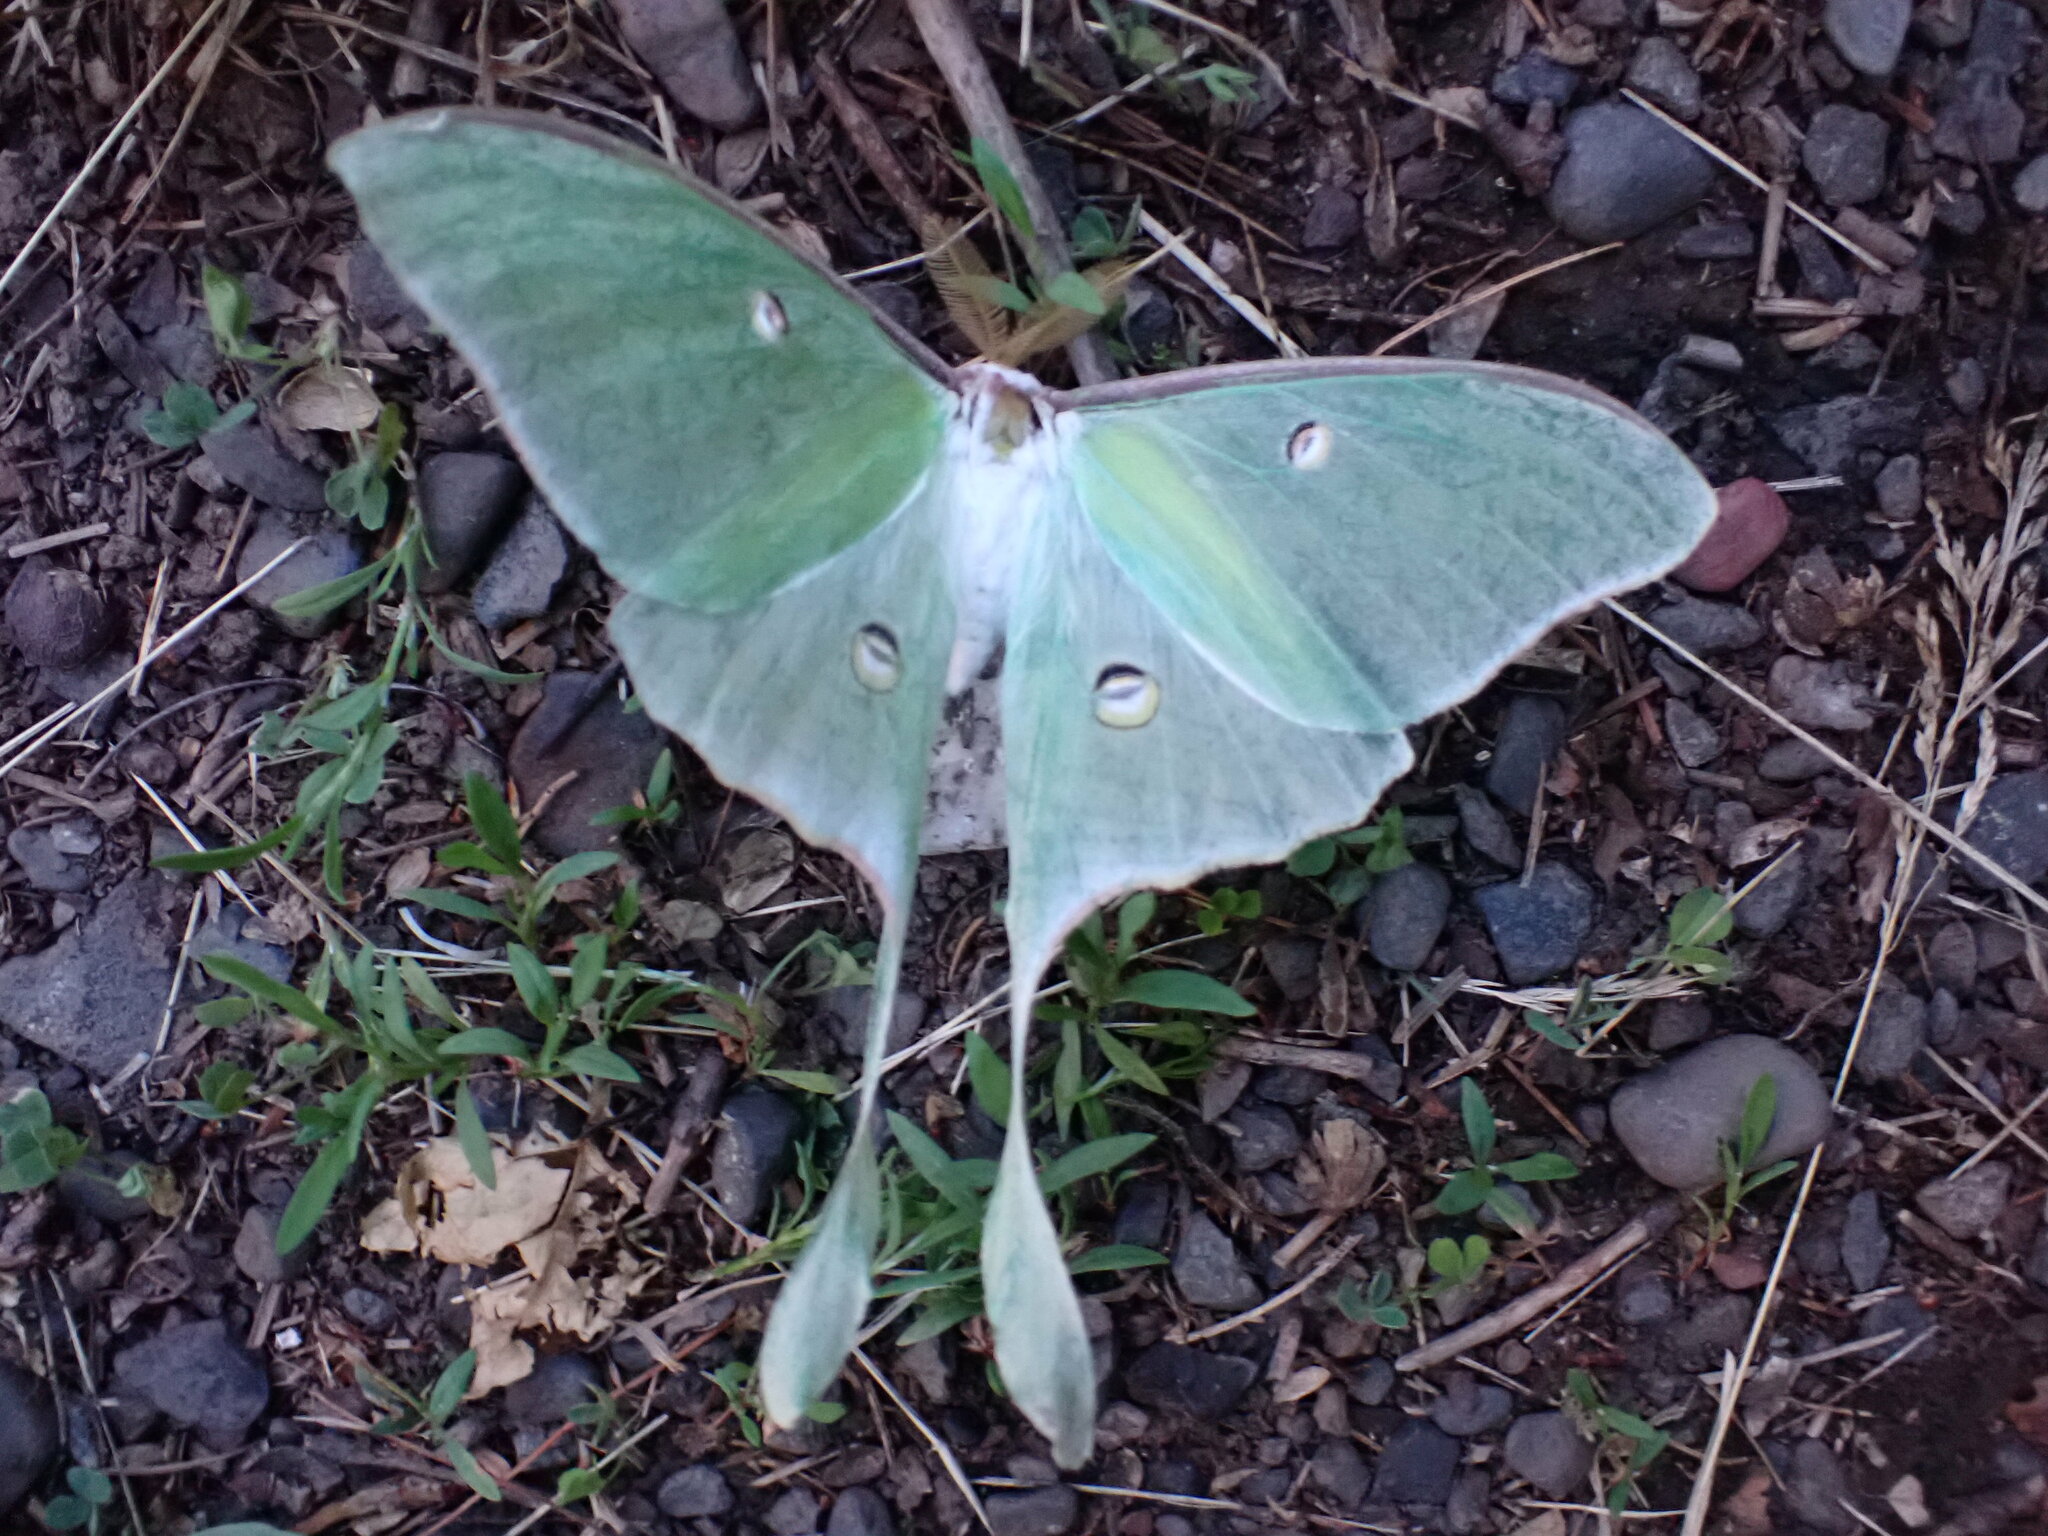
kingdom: Animalia
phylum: Arthropoda
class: Insecta
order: Lepidoptera
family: Saturniidae
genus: Actias
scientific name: Actias luna
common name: Luna moth
